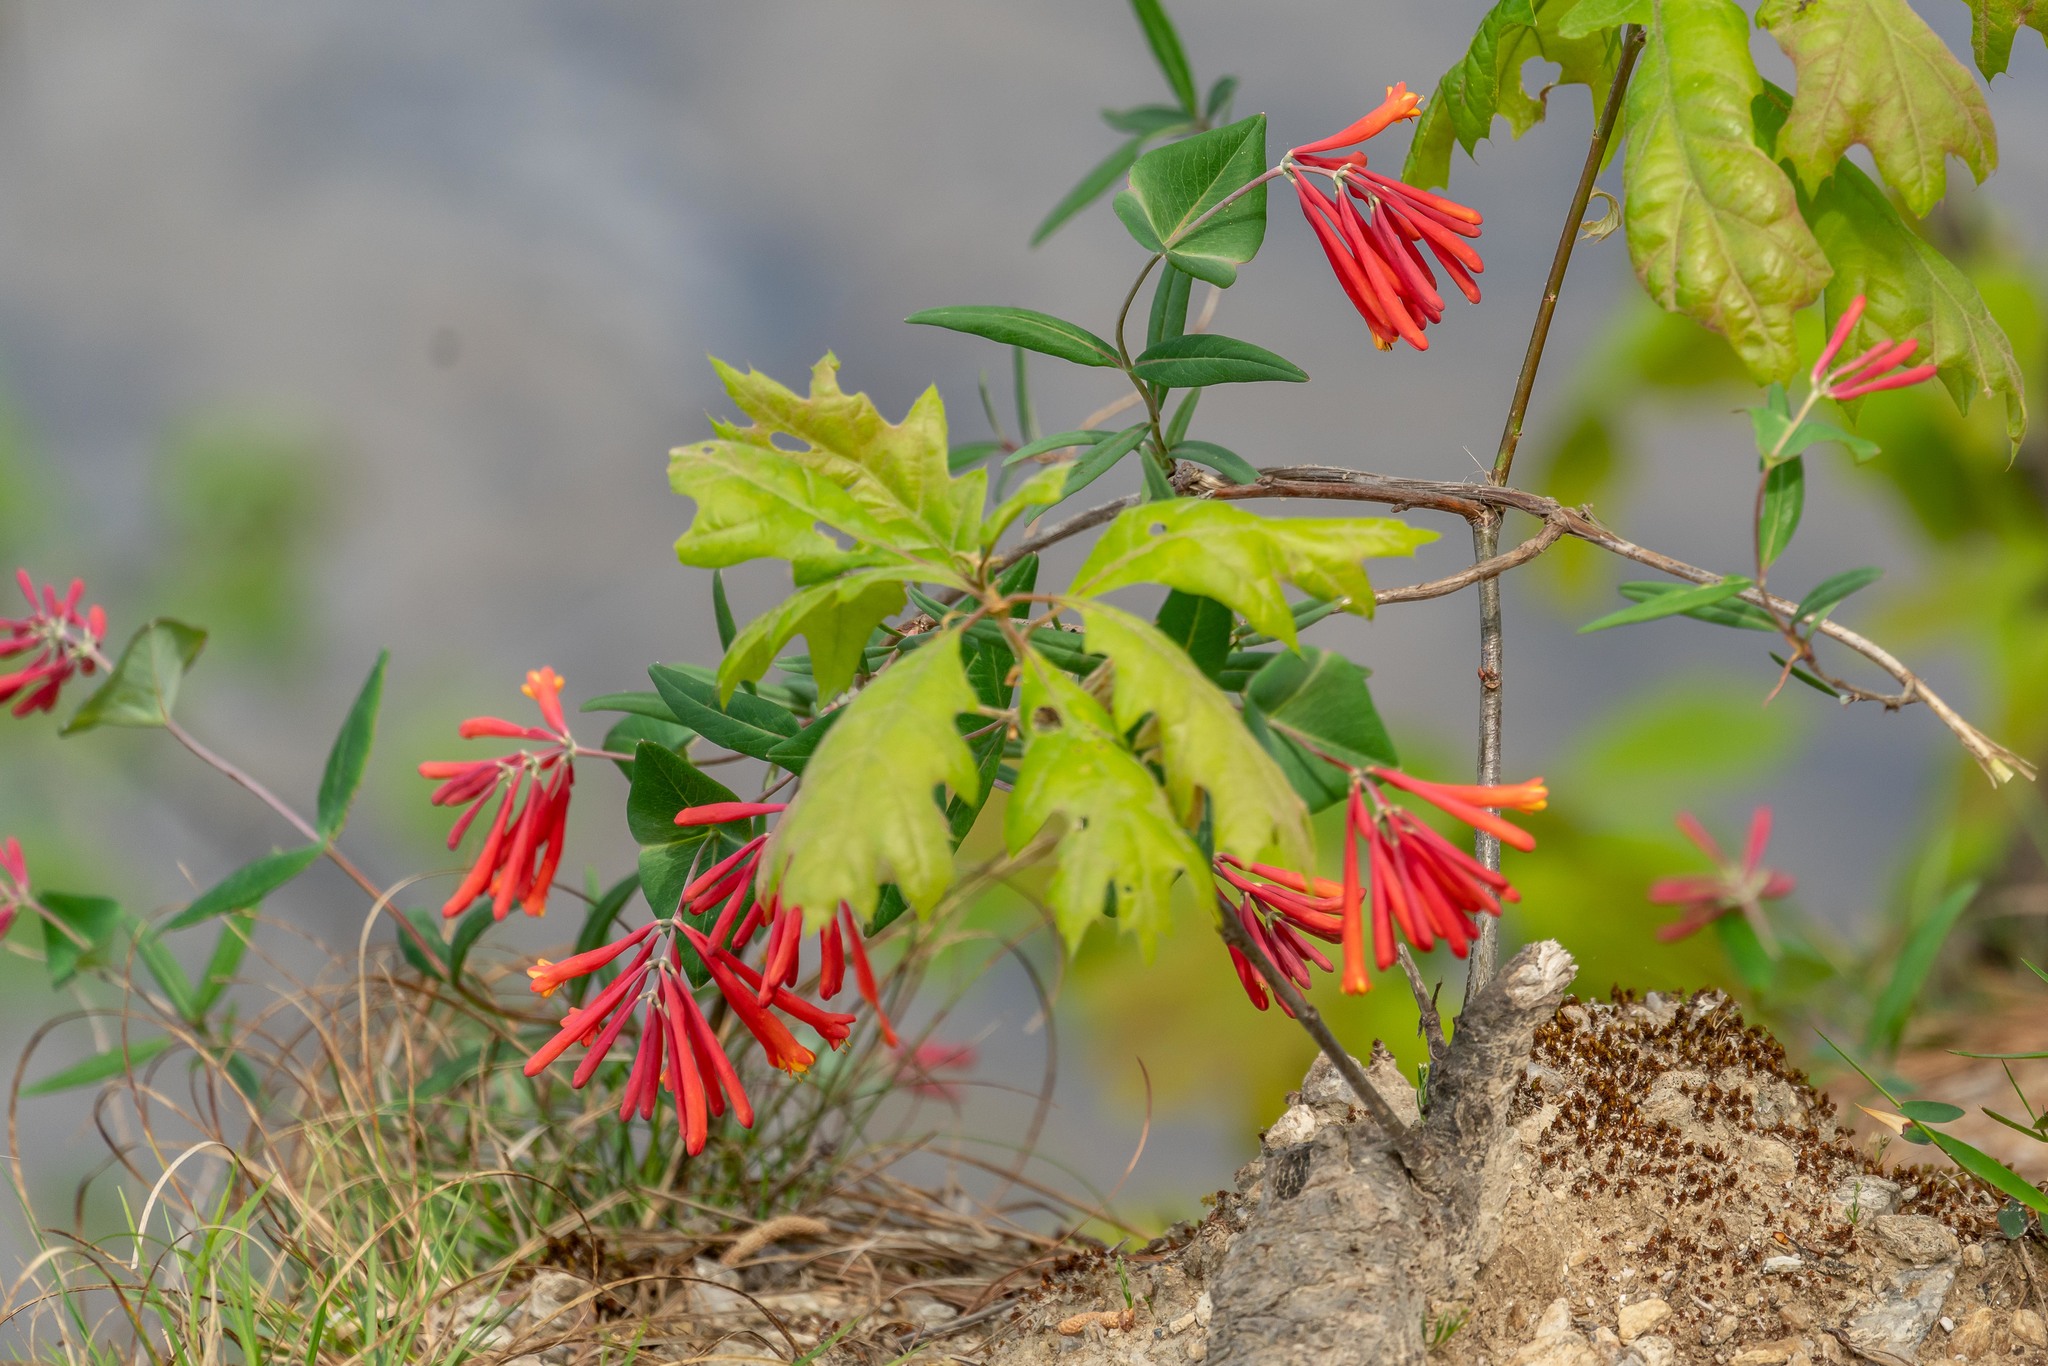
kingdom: Plantae
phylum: Tracheophyta
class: Magnoliopsida
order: Dipsacales
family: Caprifoliaceae
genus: Lonicera
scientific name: Lonicera sempervirens
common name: Coral honeysuckle
